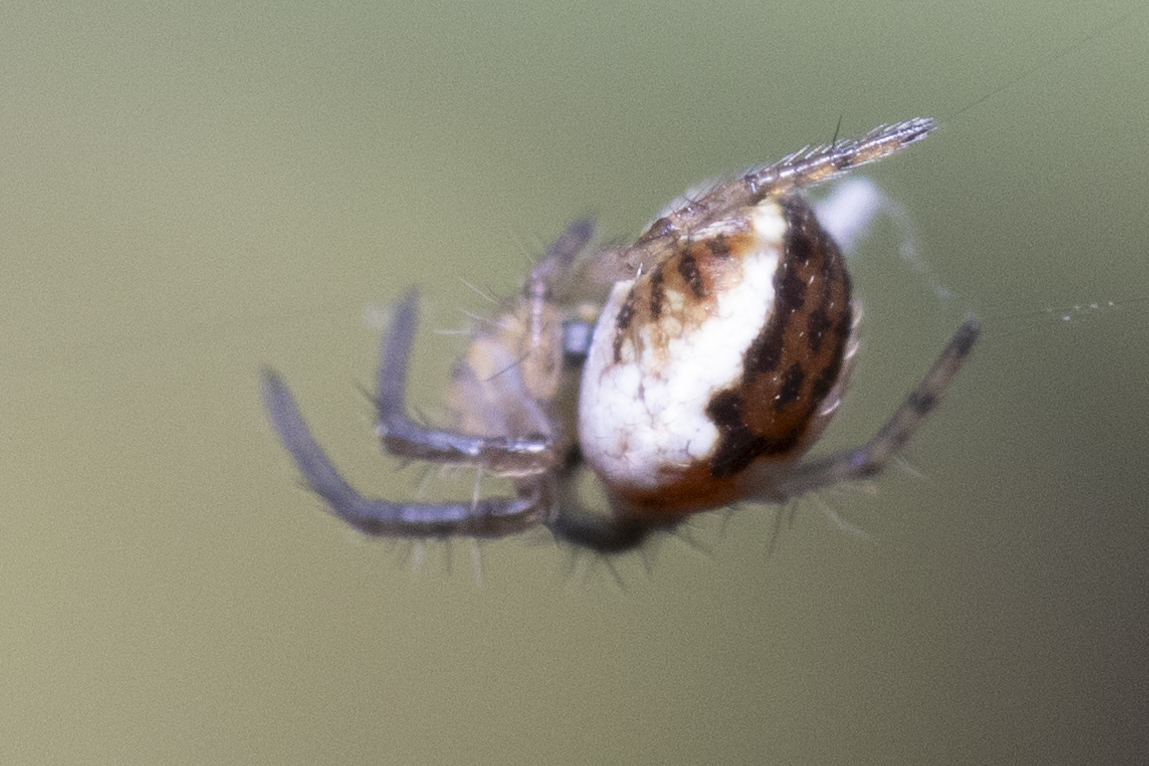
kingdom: Animalia
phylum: Arthropoda
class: Arachnida
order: Araneae
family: Araneidae
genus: Mangora
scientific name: Mangora acalypha
